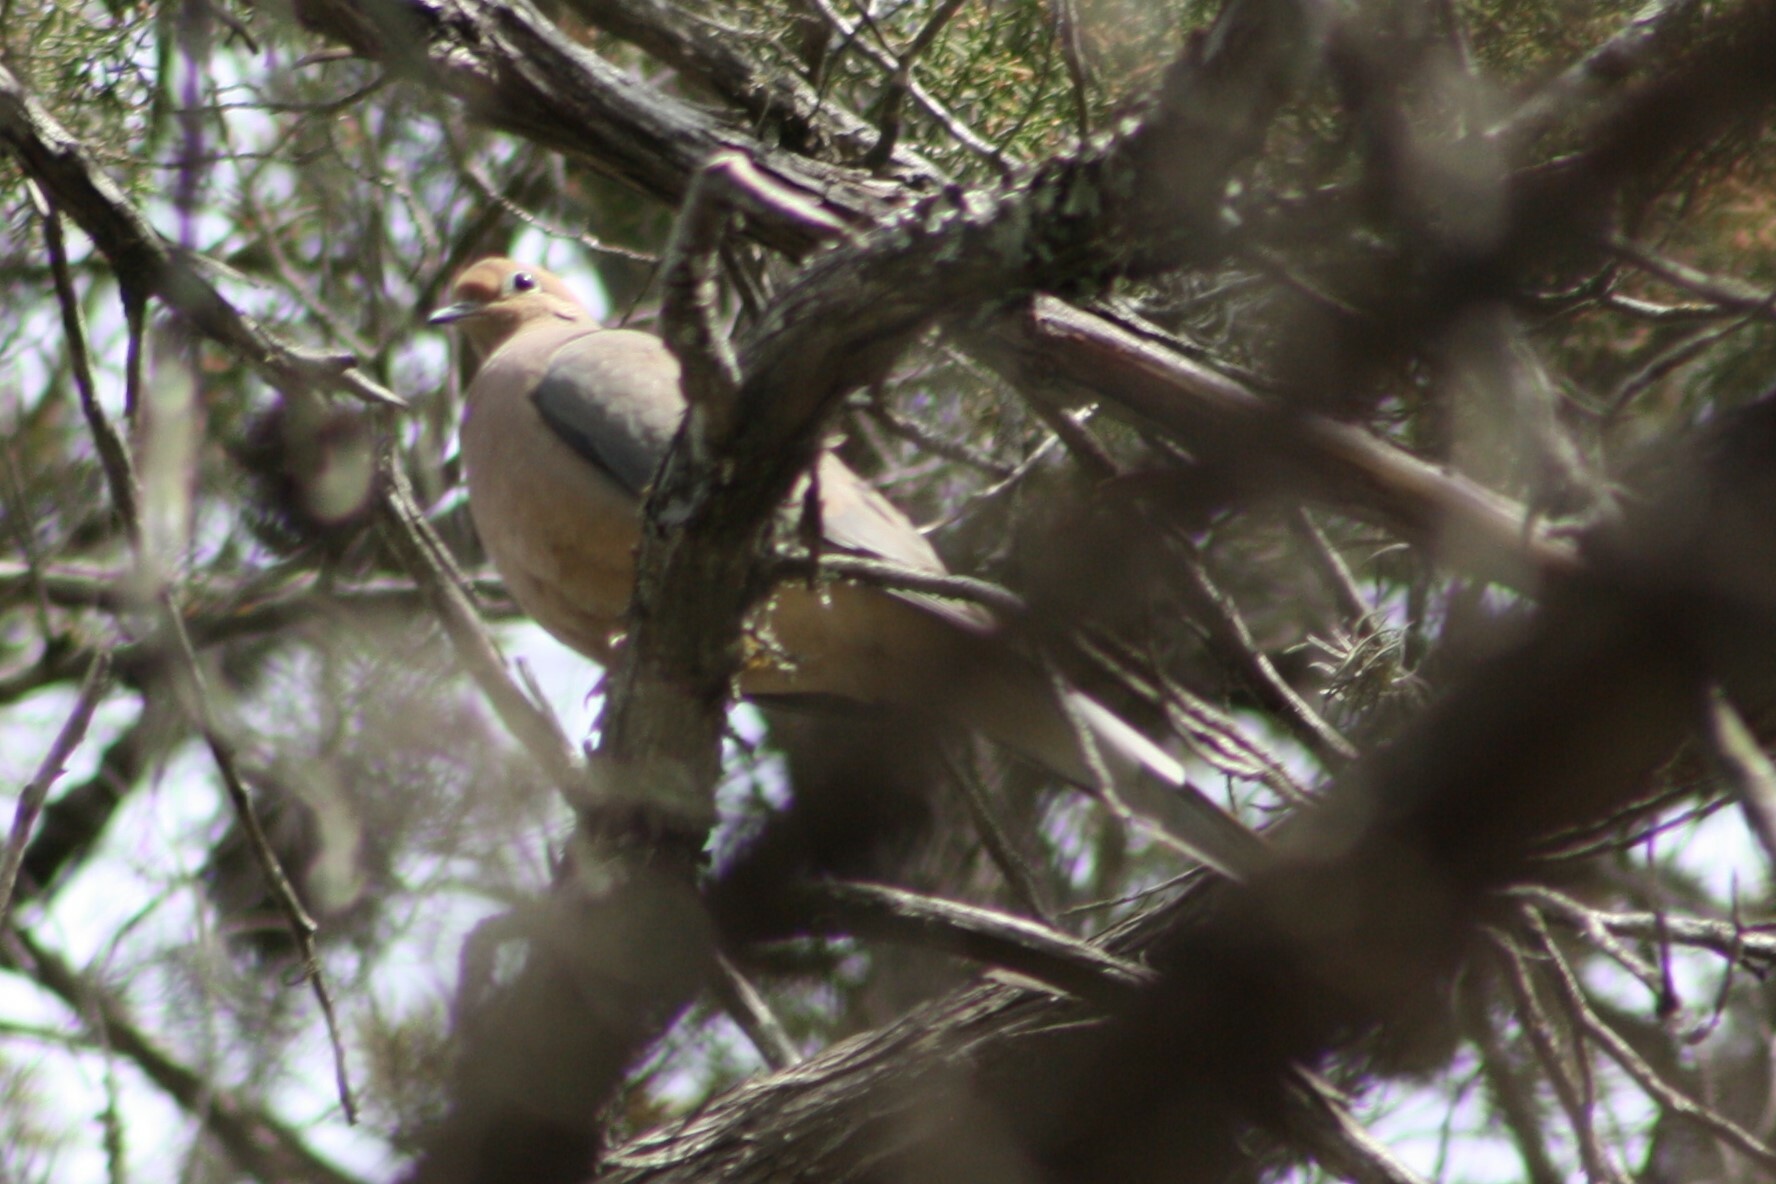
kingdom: Animalia
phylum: Chordata
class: Aves
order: Columbiformes
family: Columbidae
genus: Zenaida
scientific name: Zenaida macroura
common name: Mourning dove
